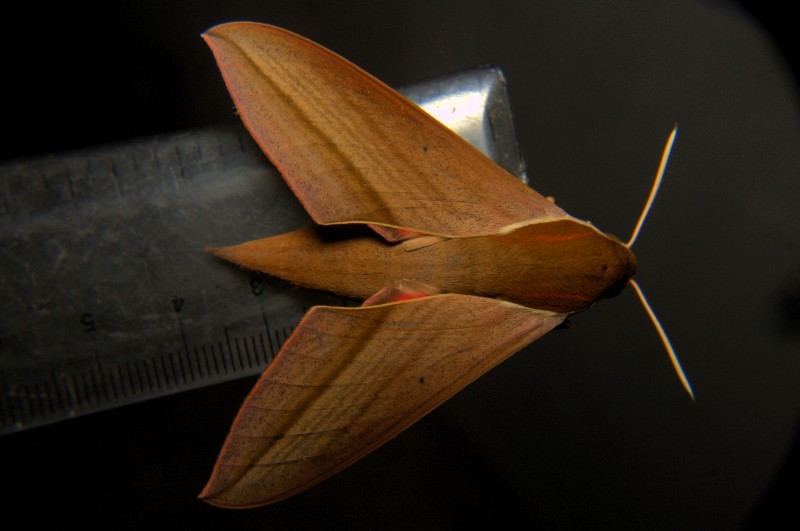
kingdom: Animalia
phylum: Arthropoda
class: Insecta
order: Lepidoptera
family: Sphingidae
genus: Theretra
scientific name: Theretra alecto
